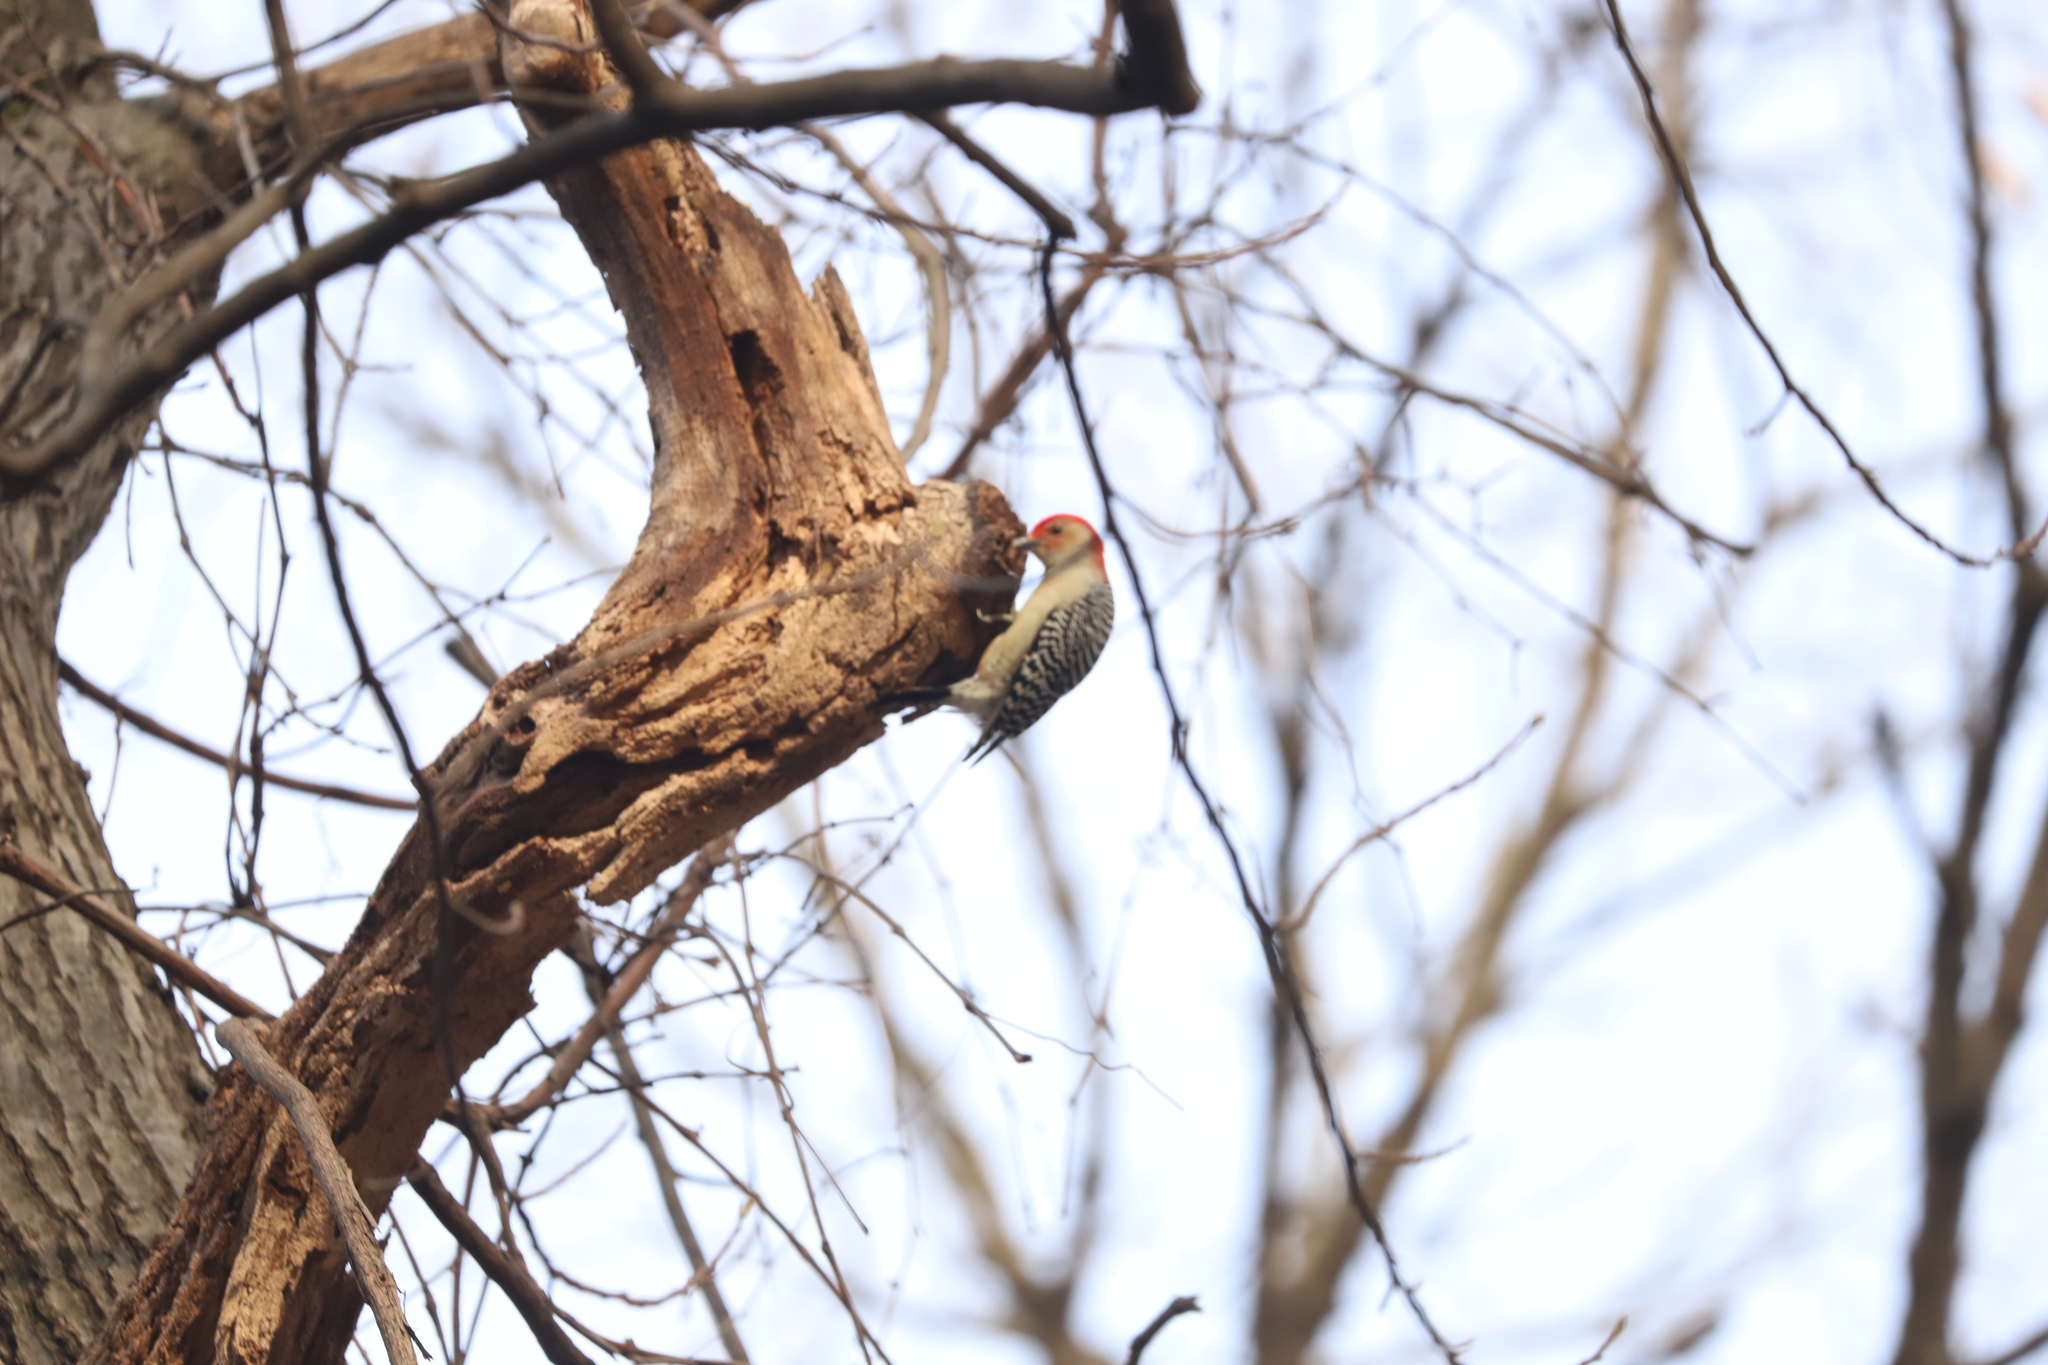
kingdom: Animalia
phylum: Chordata
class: Aves
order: Piciformes
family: Picidae
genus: Melanerpes
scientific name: Melanerpes carolinus
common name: Red-bellied woodpecker
